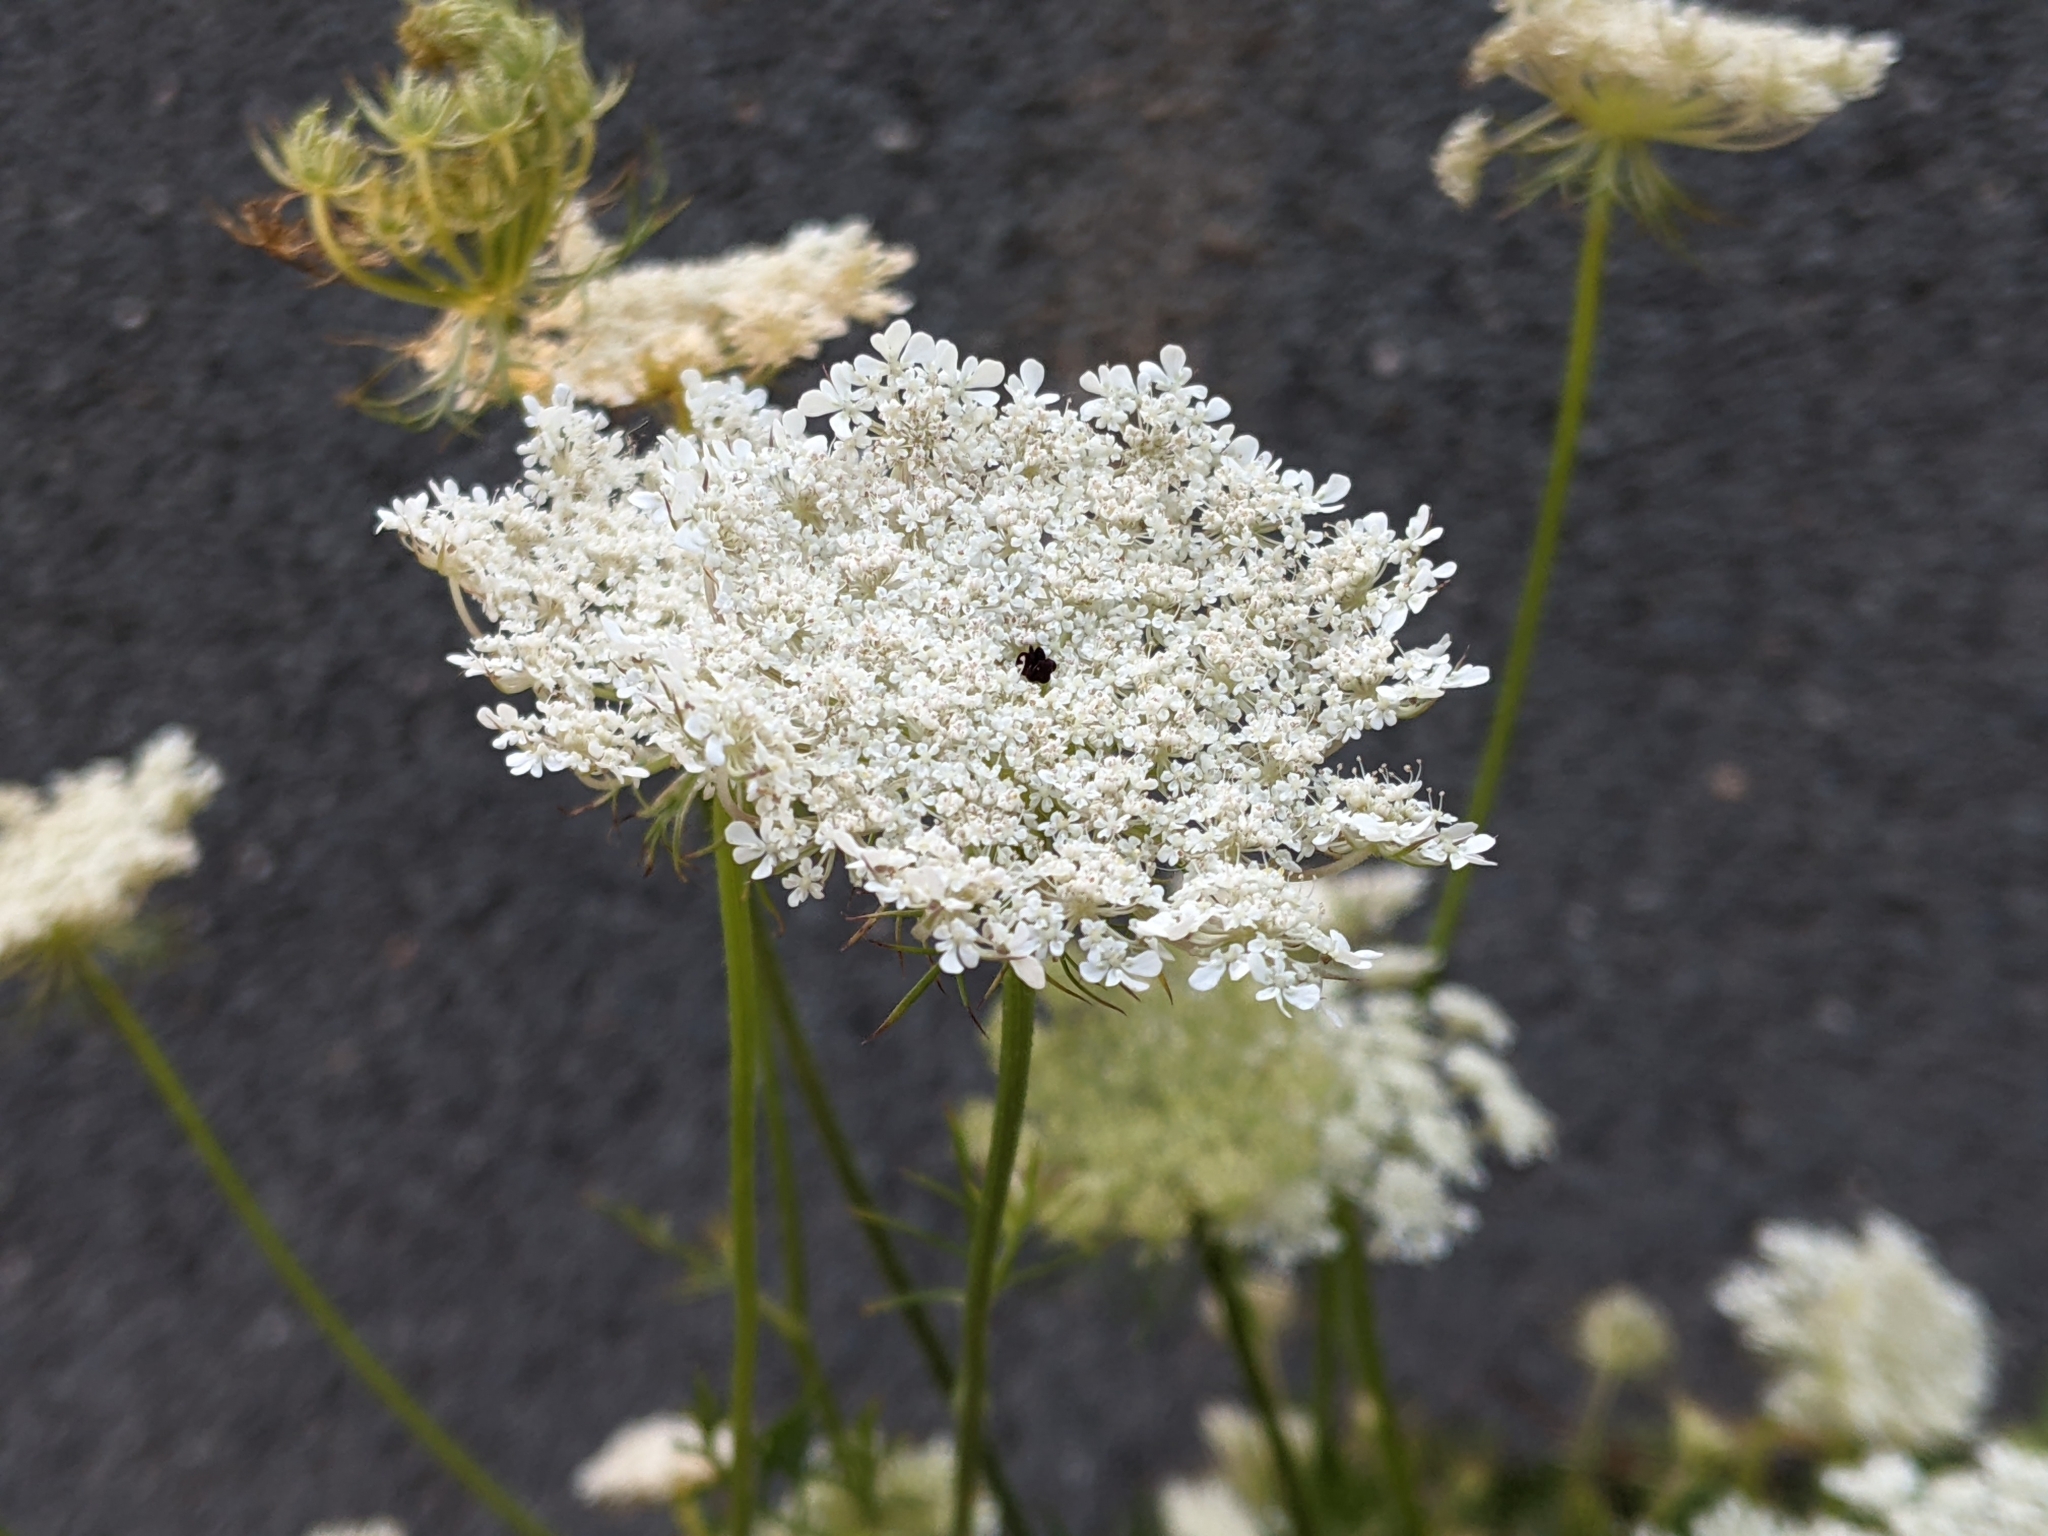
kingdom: Plantae
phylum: Tracheophyta
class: Magnoliopsida
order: Apiales
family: Apiaceae
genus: Daucus
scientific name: Daucus carota
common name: Wild carrot
